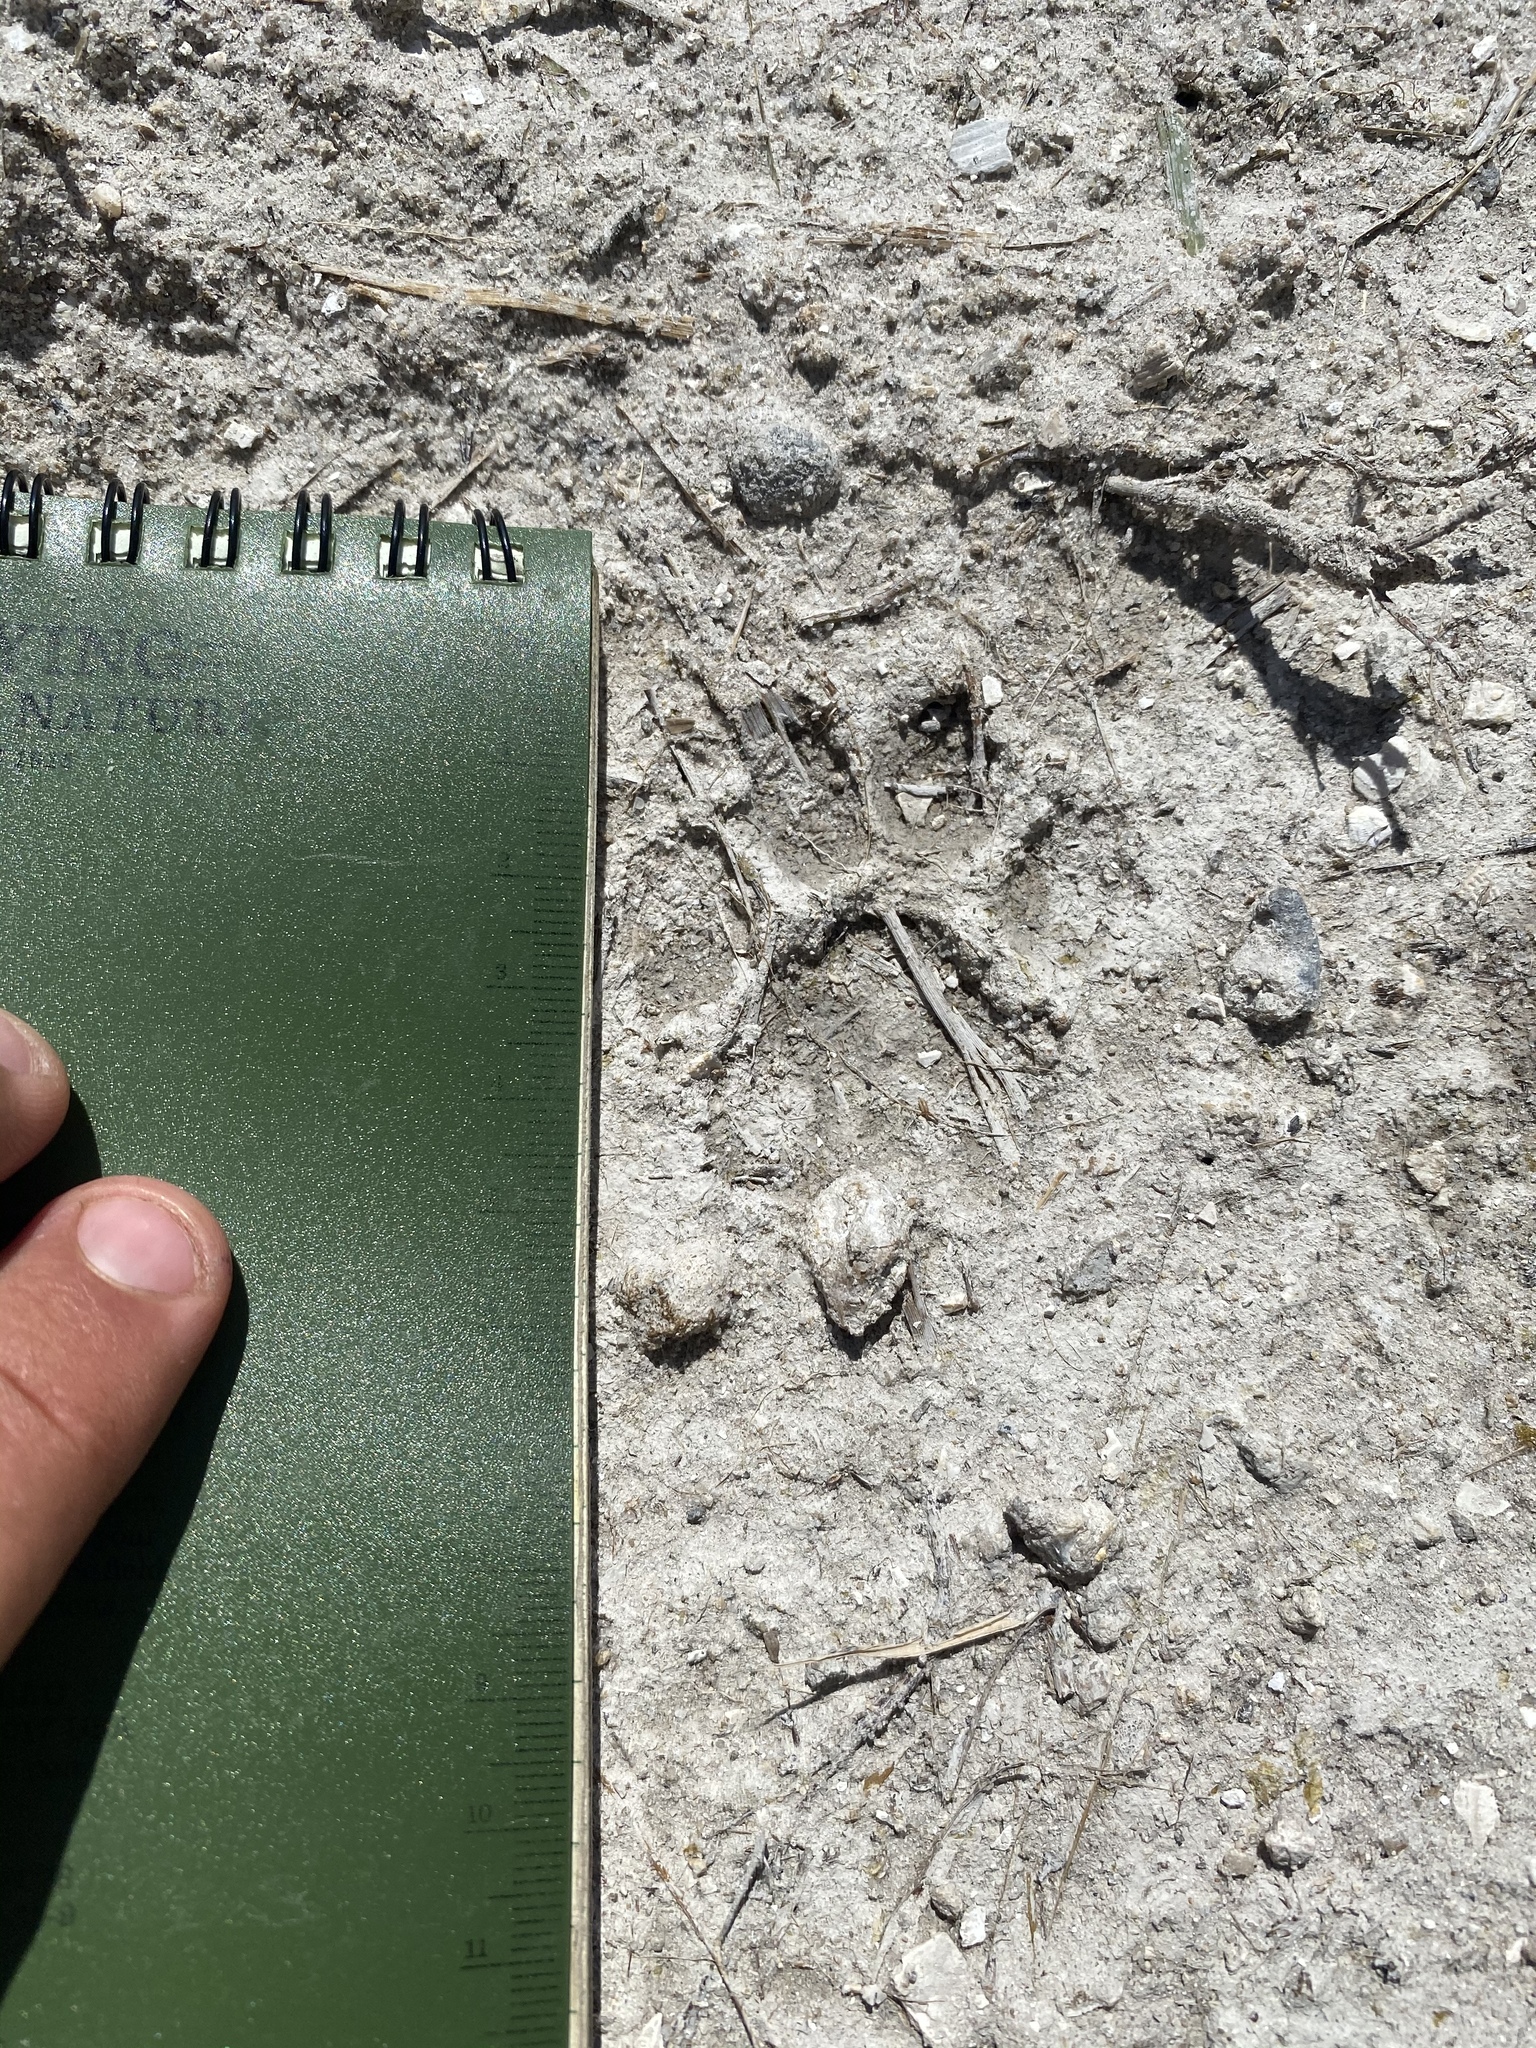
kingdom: Animalia
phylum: Chordata
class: Mammalia
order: Carnivora
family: Felidae
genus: Lynx
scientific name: Lynx rufus
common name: Bobcat
